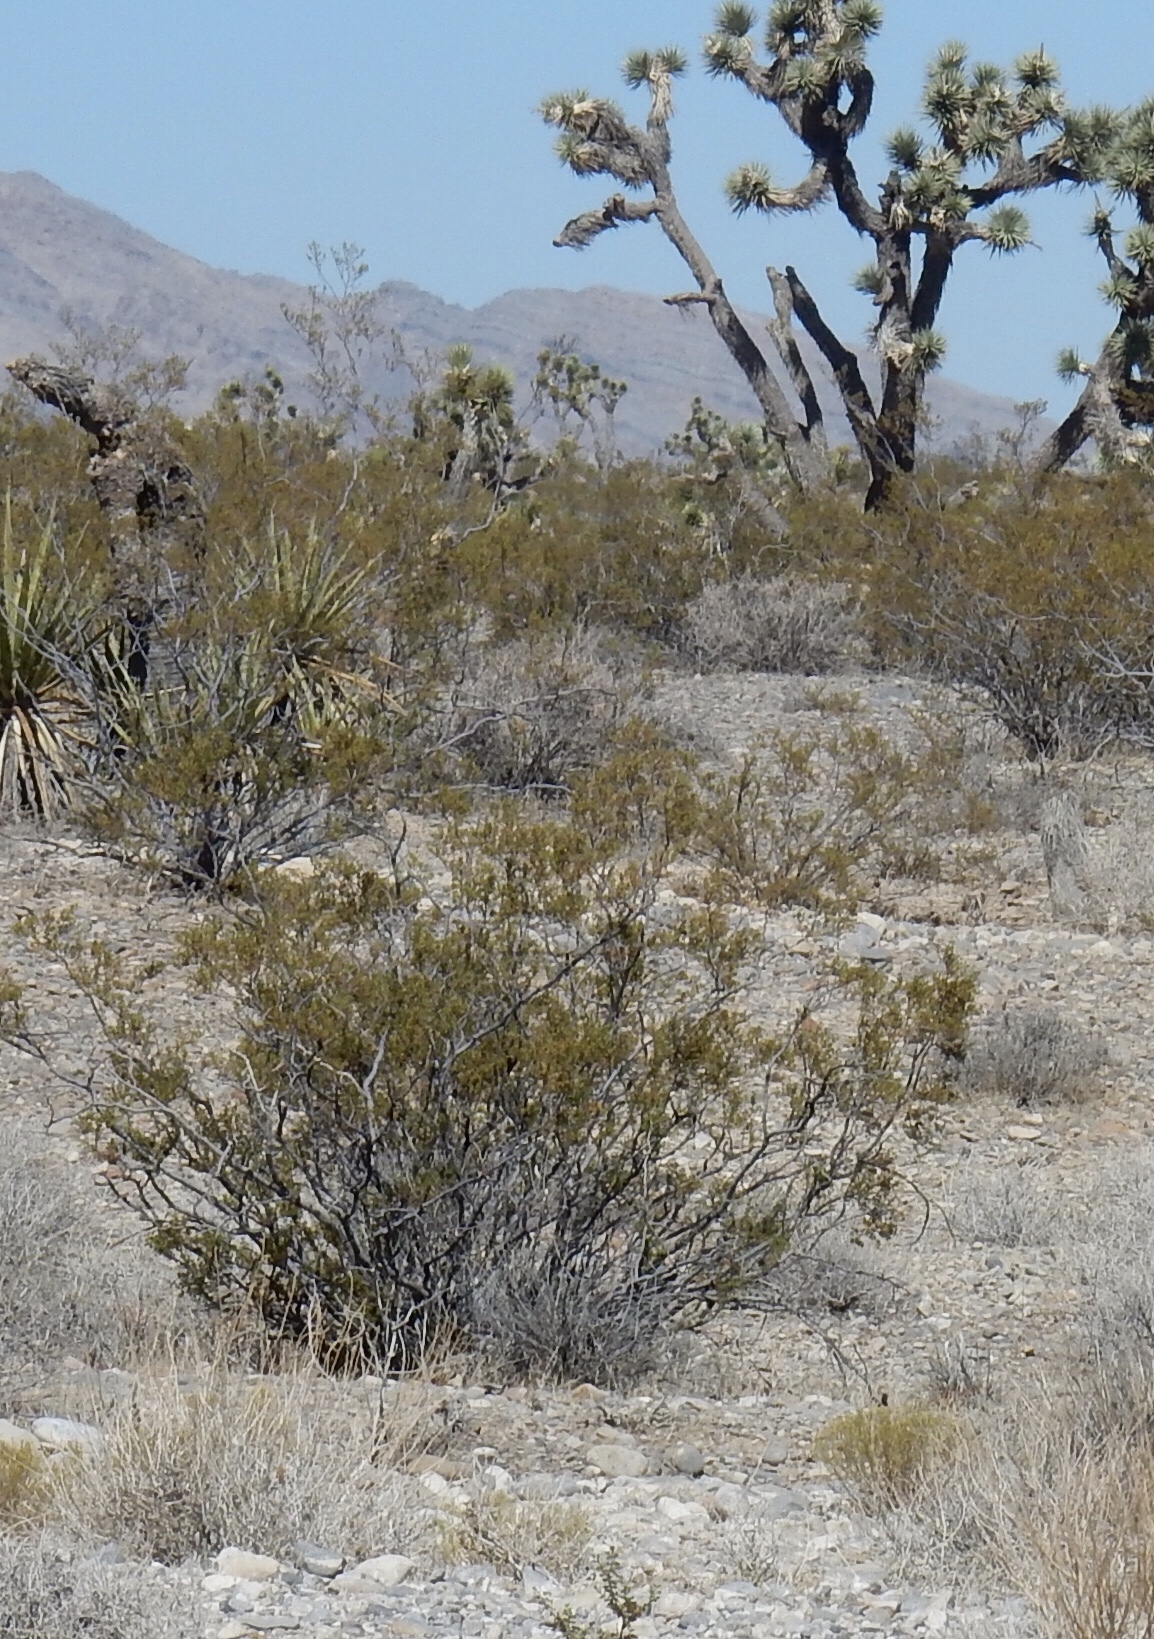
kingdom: Plantae
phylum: Tracheophyta
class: Magnoliopsida
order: Zygophyllales
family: Zygophyllaceae
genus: Larrea
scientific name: Larrea tridentata
